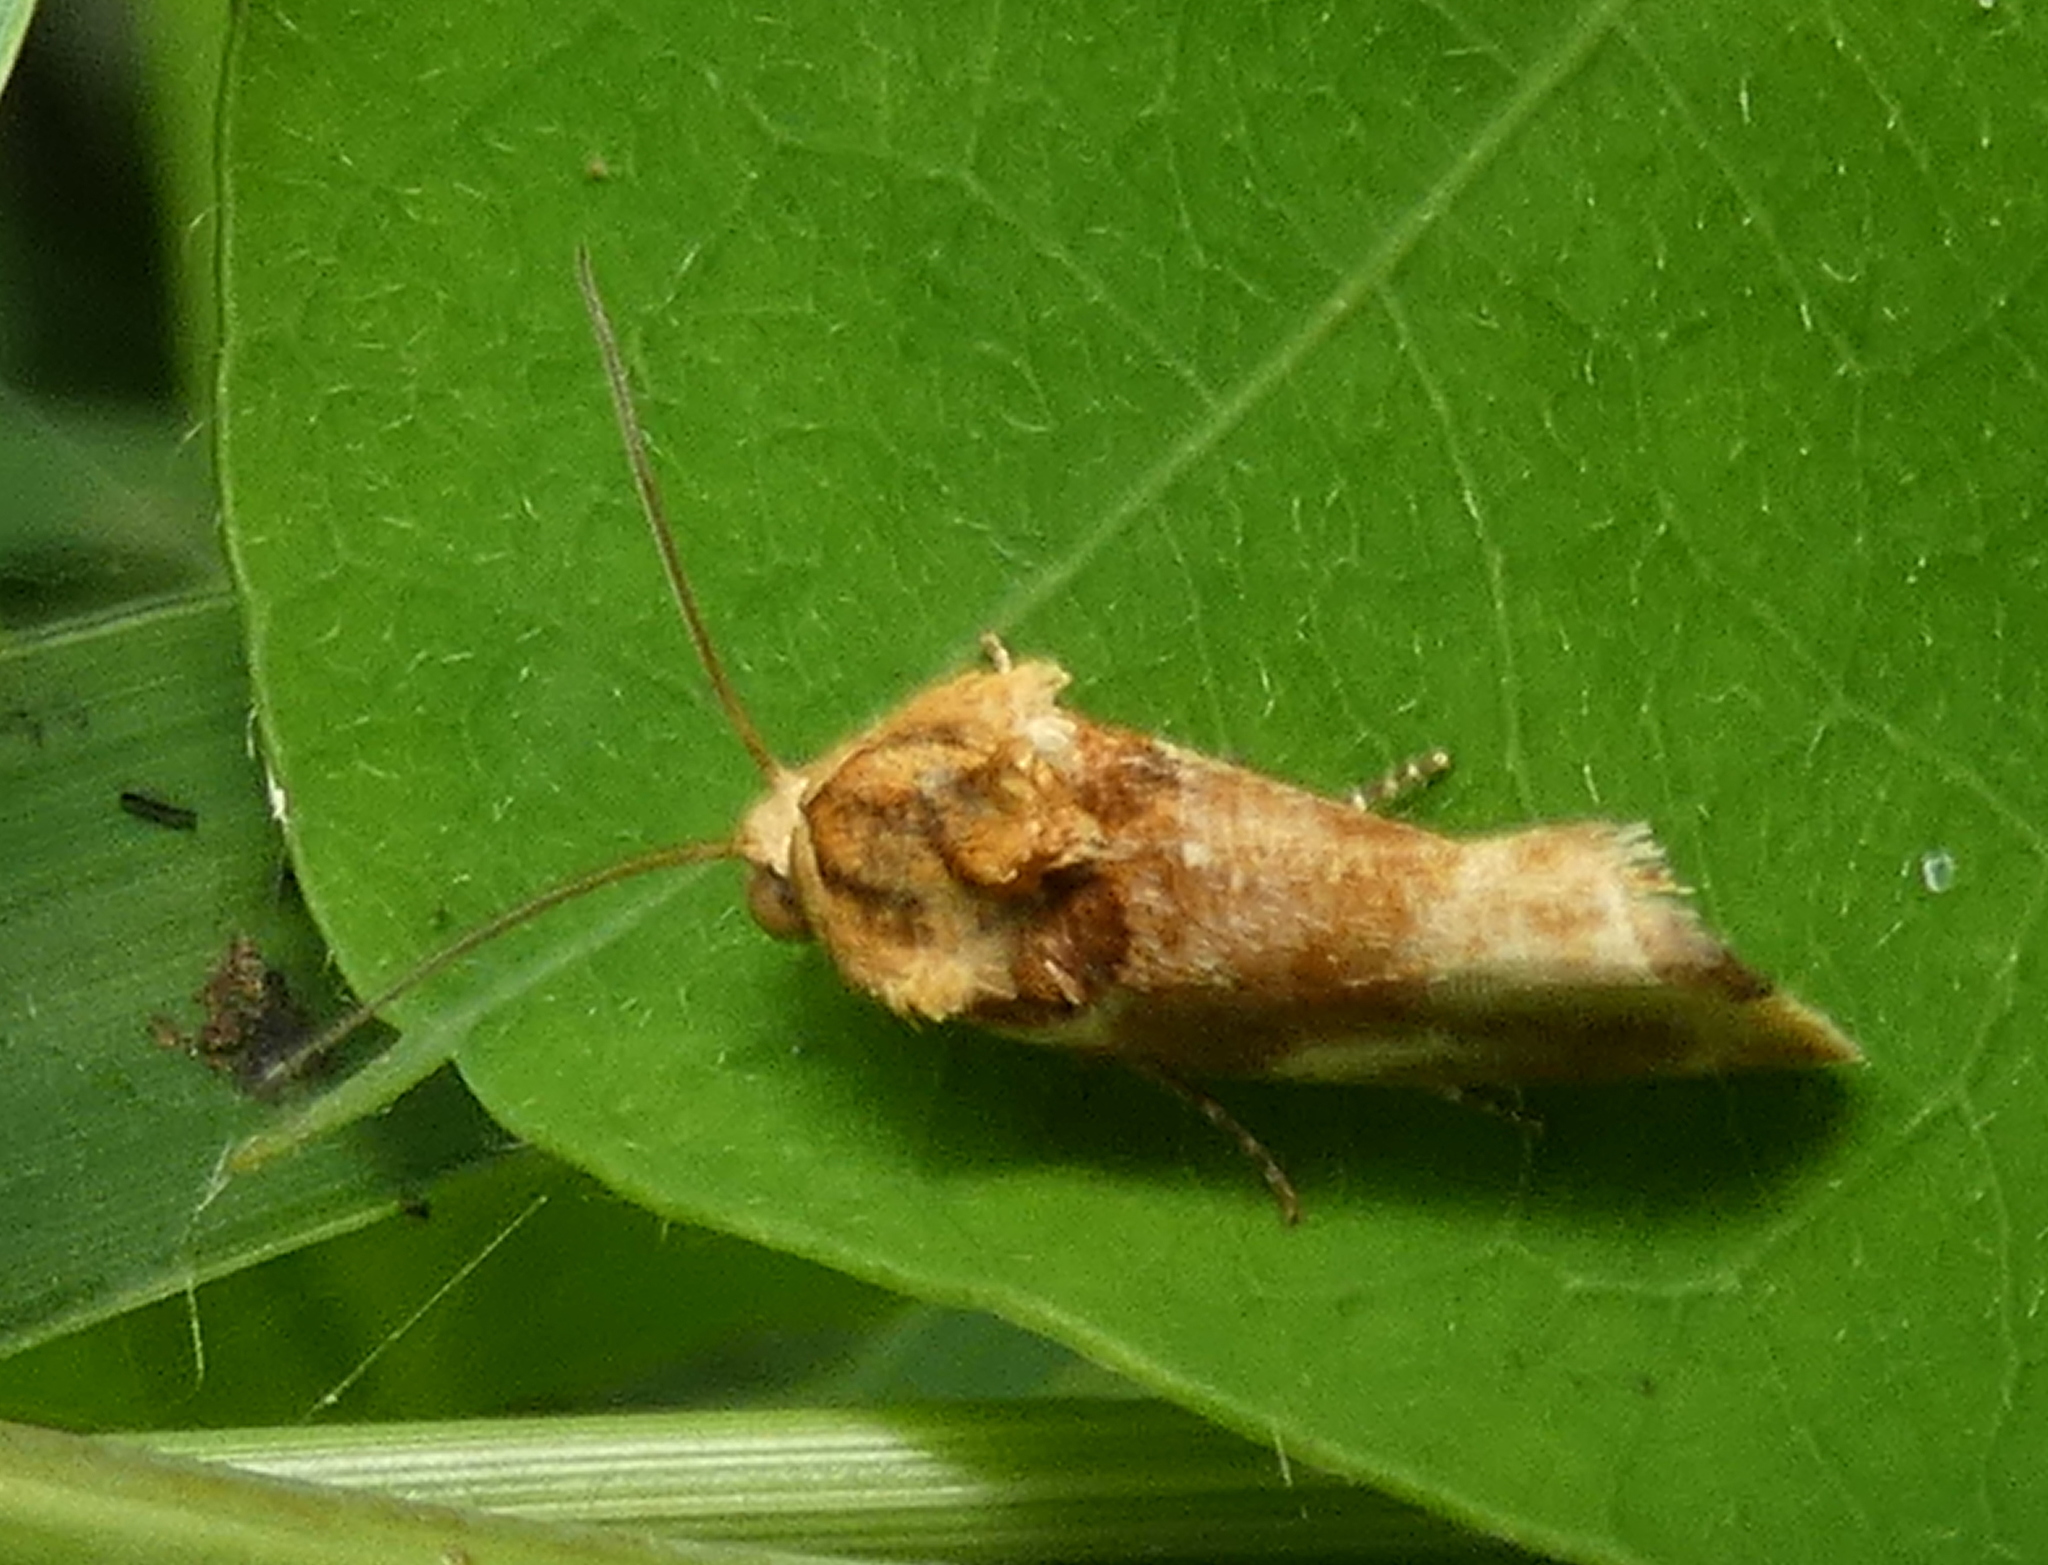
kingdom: Animalia
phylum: Arthropoda
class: Insecta
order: Lepidoptera
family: Noctuidae
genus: Spragueia
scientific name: Spragueia
